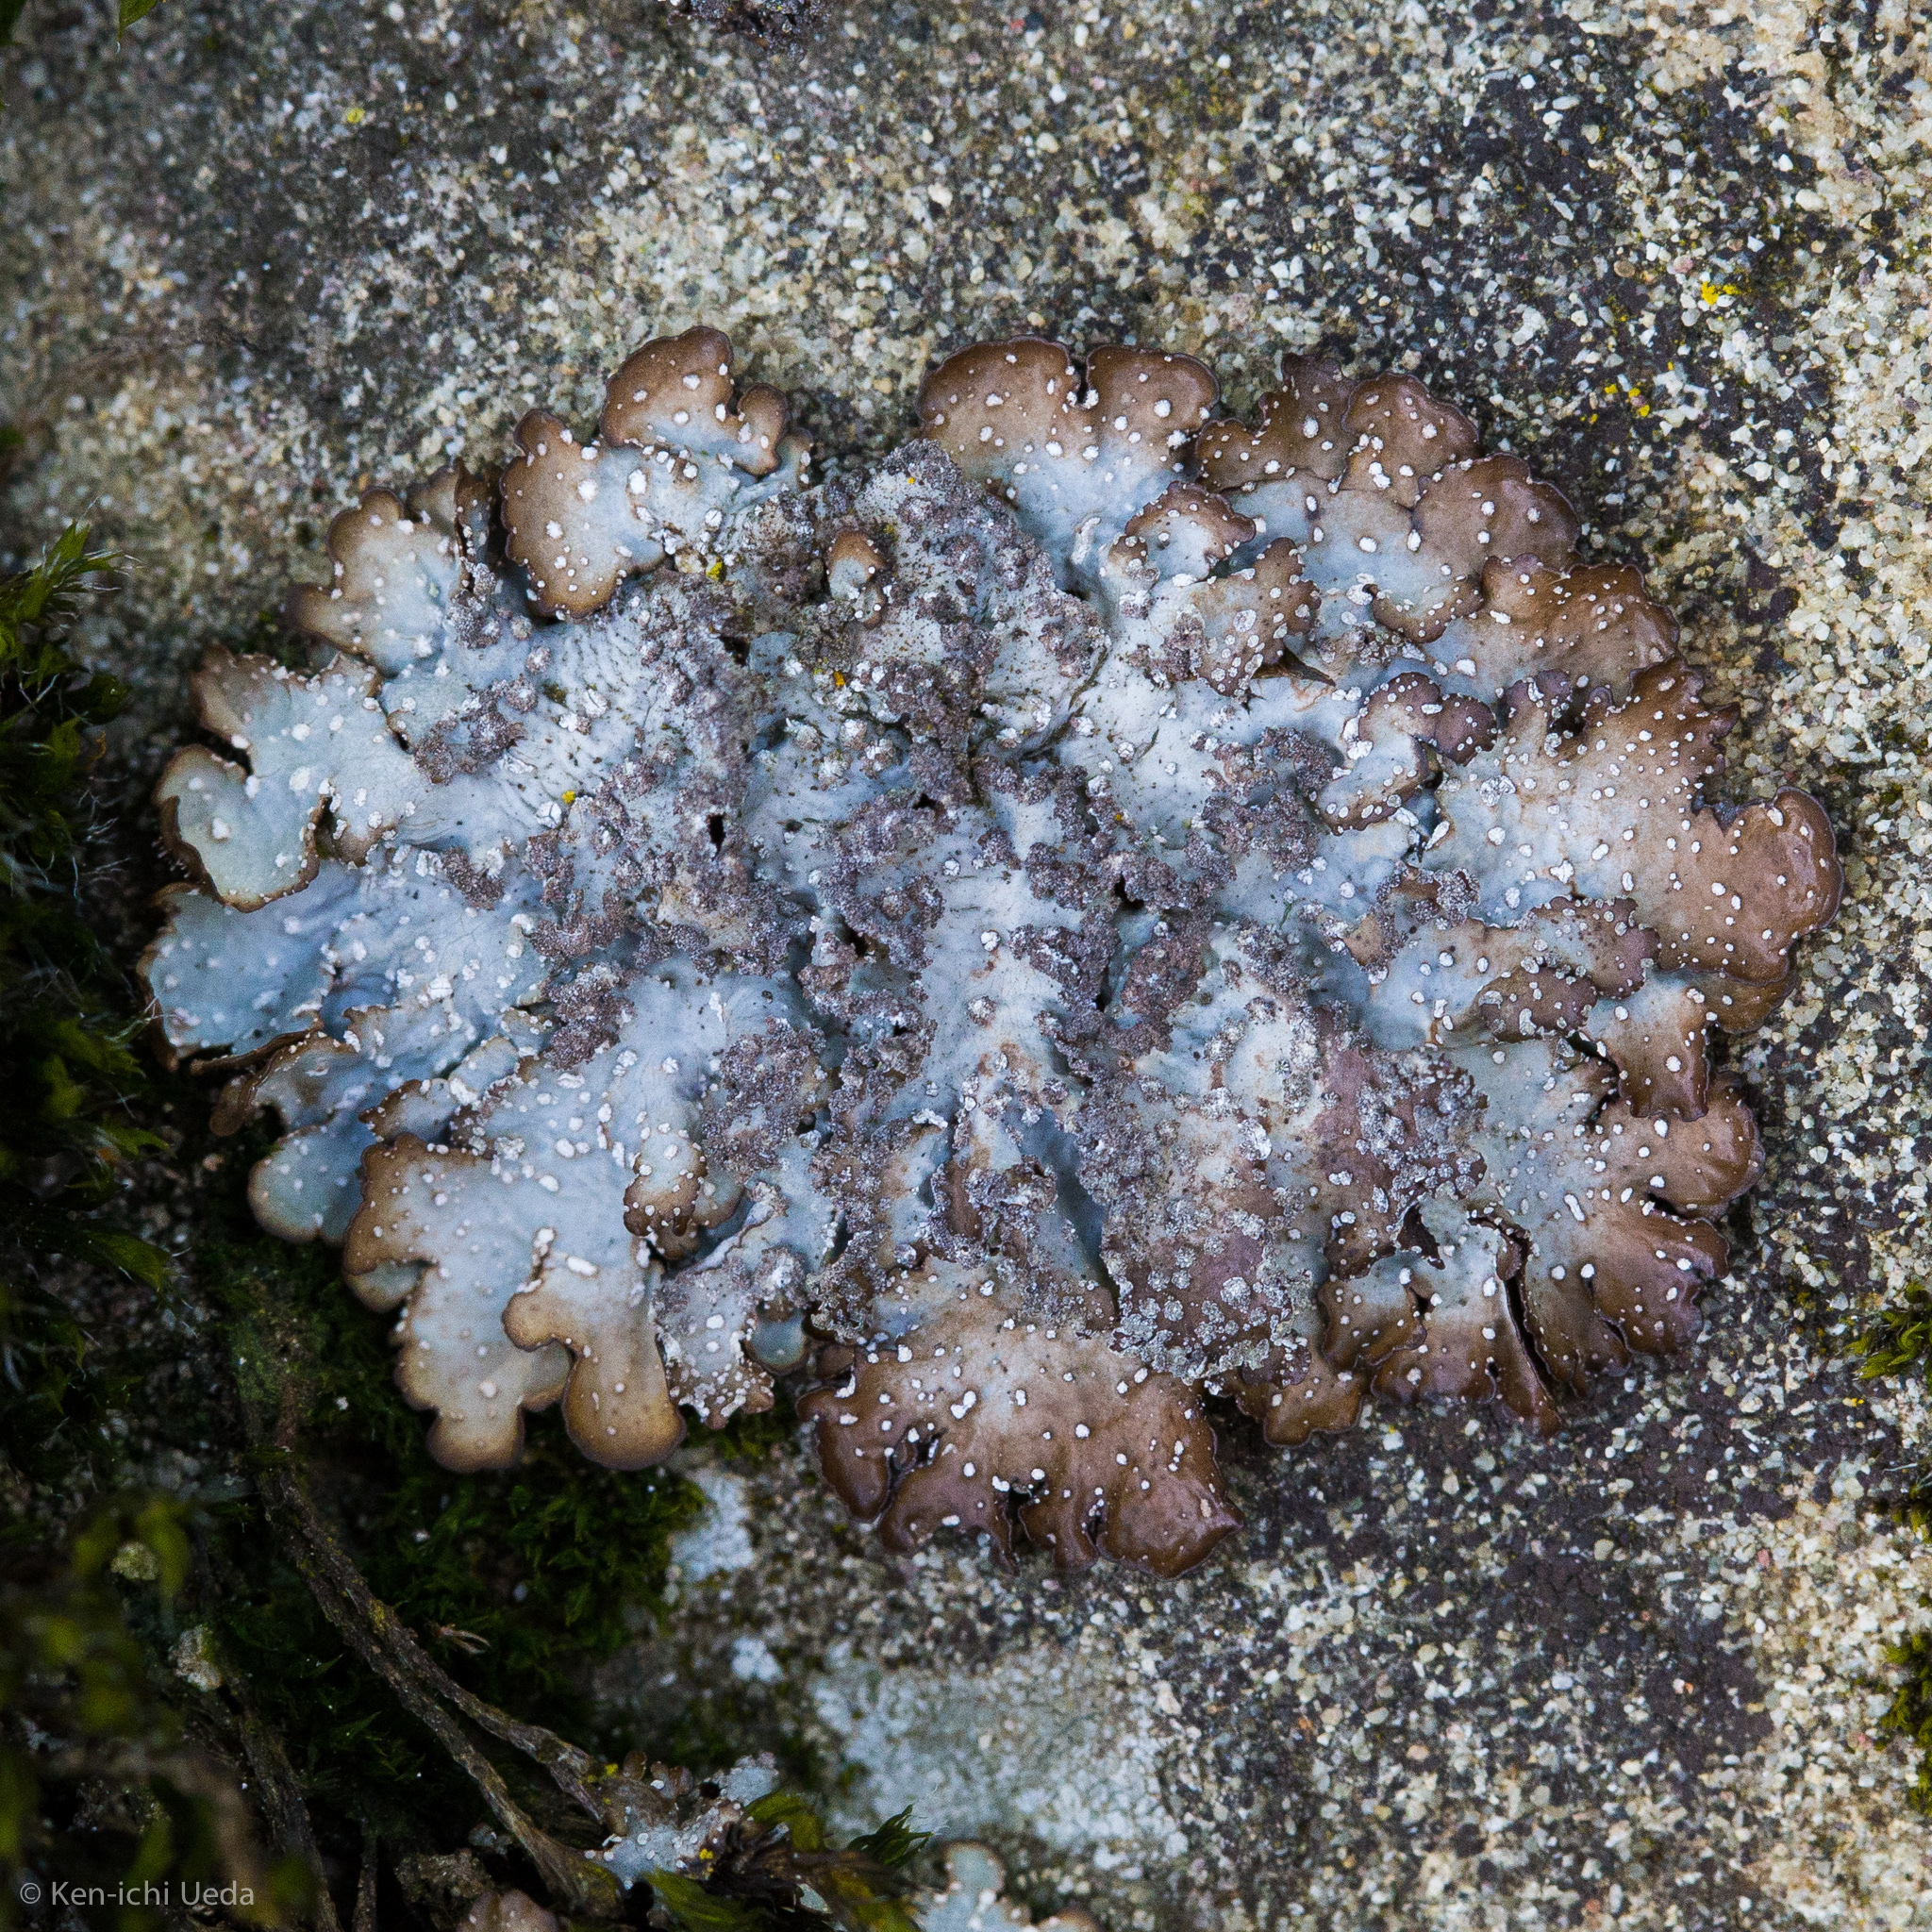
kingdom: Fungi
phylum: Ascomycota
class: Lecanoromycetes
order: Lecanorales
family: Parmeliaceae
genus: Punctelia
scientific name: Punctelia stictica
